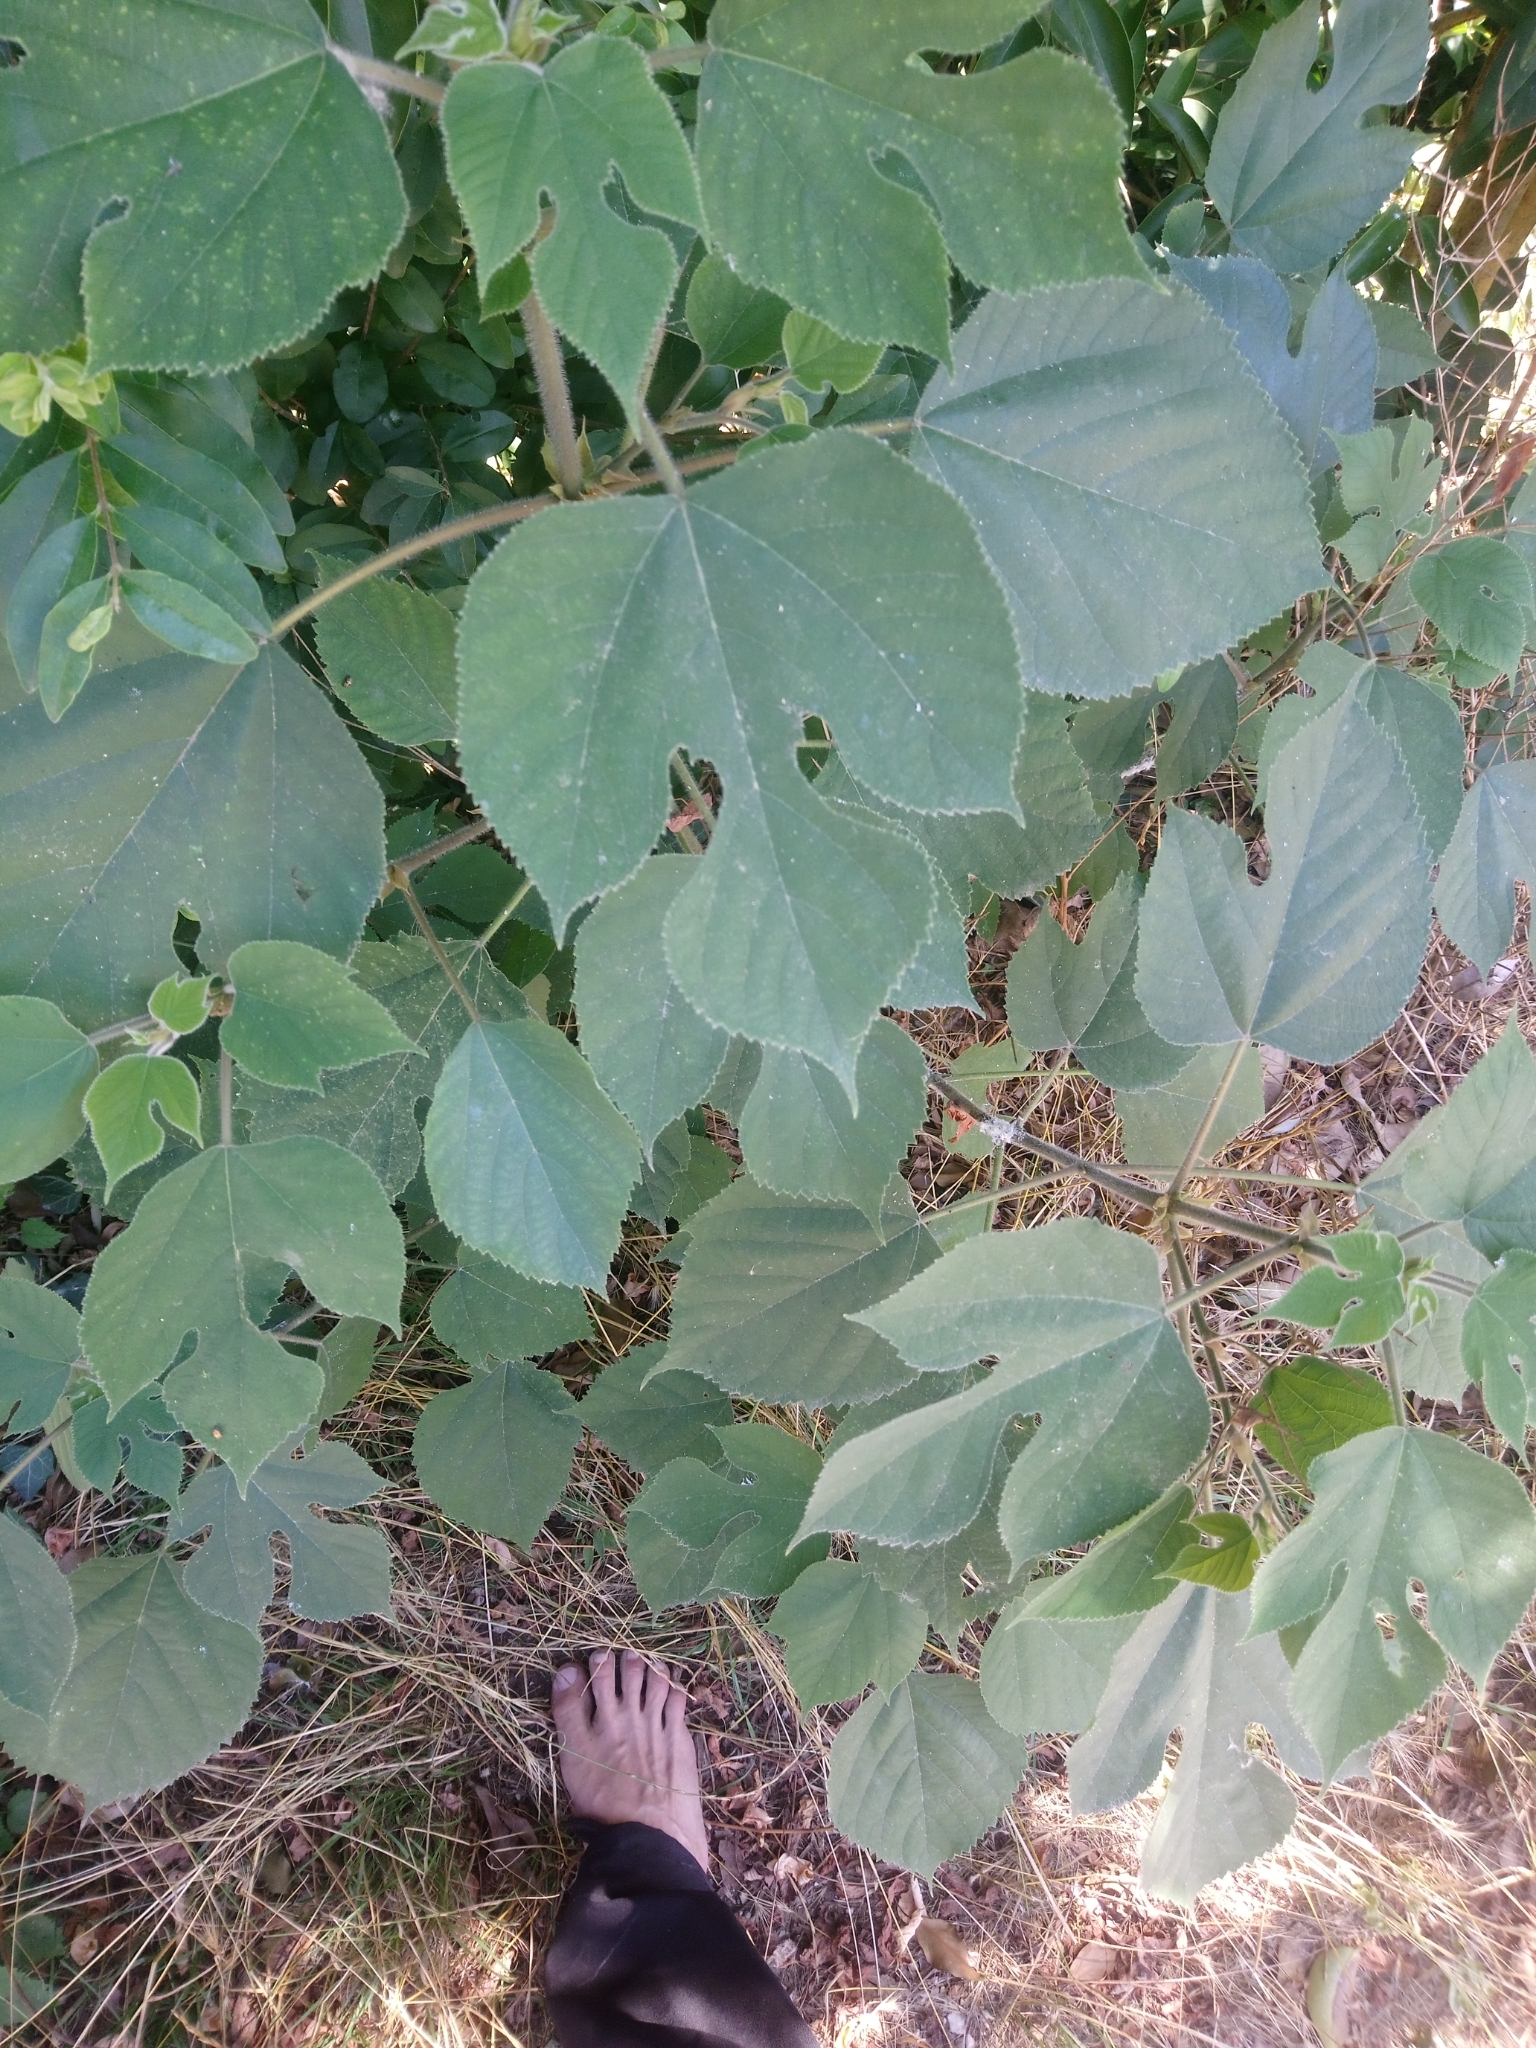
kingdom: Plantae
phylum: Tracheophyta
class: Magnoliopsida
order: Rosales
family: Moraceae
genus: Broussonetia
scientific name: Broussonetia papyrifera
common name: Paper mulberry
